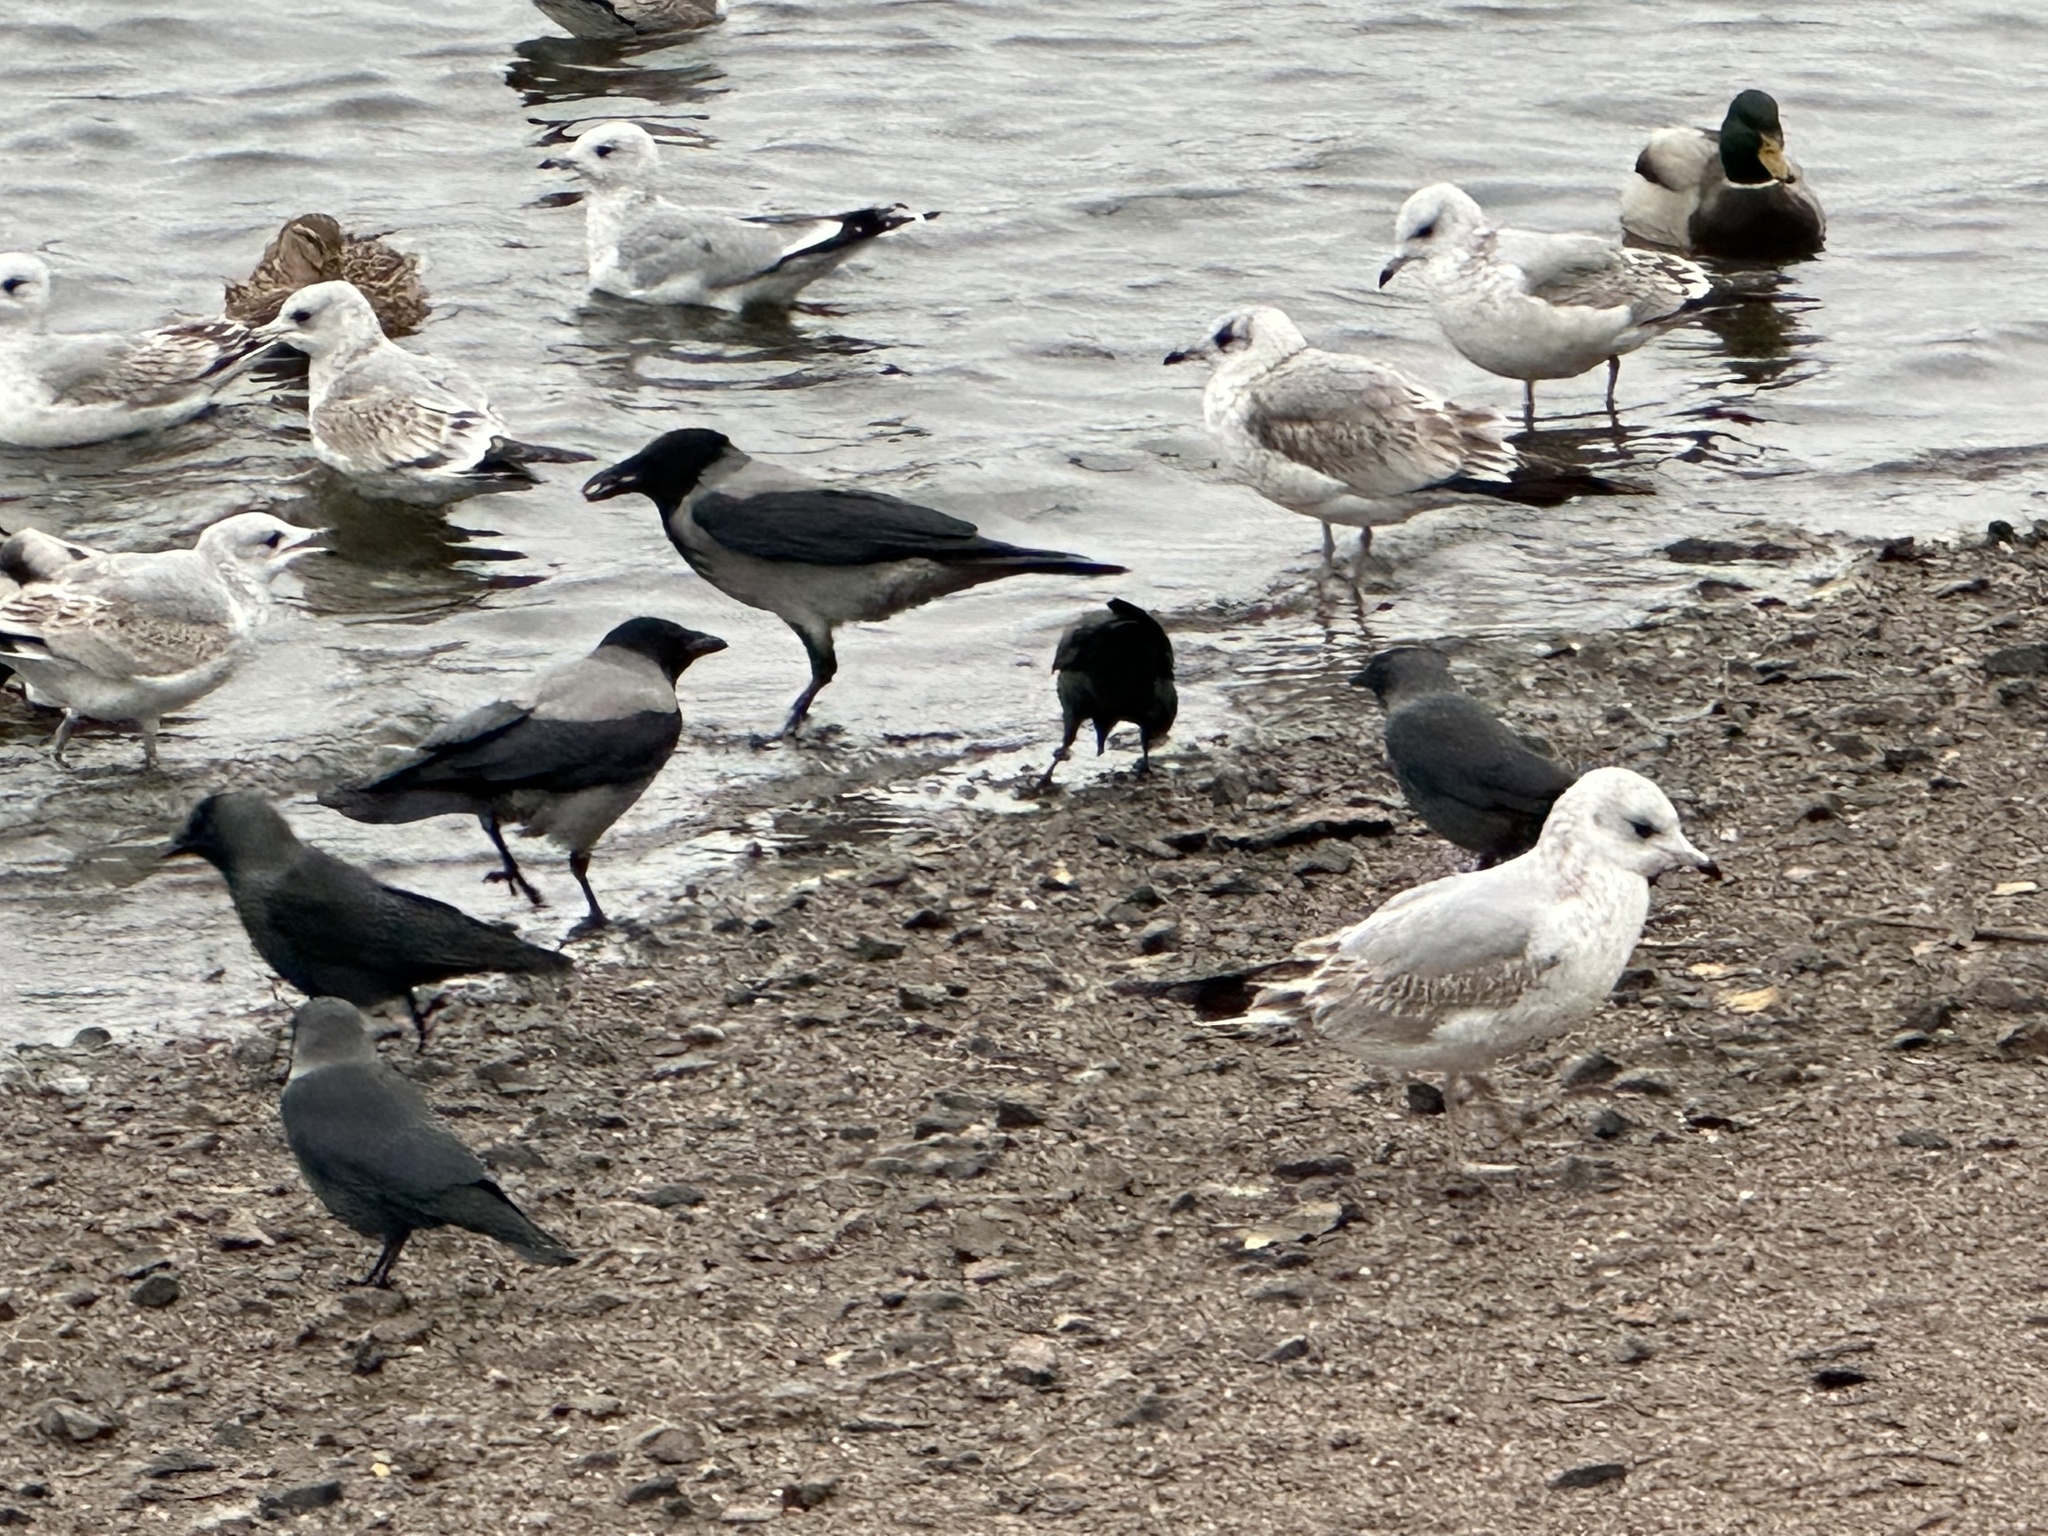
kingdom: Animalia
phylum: Chordata
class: Aves
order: Passeriformes
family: Corvidae
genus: Corvus
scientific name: Corvus cornix
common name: Hooded crow
